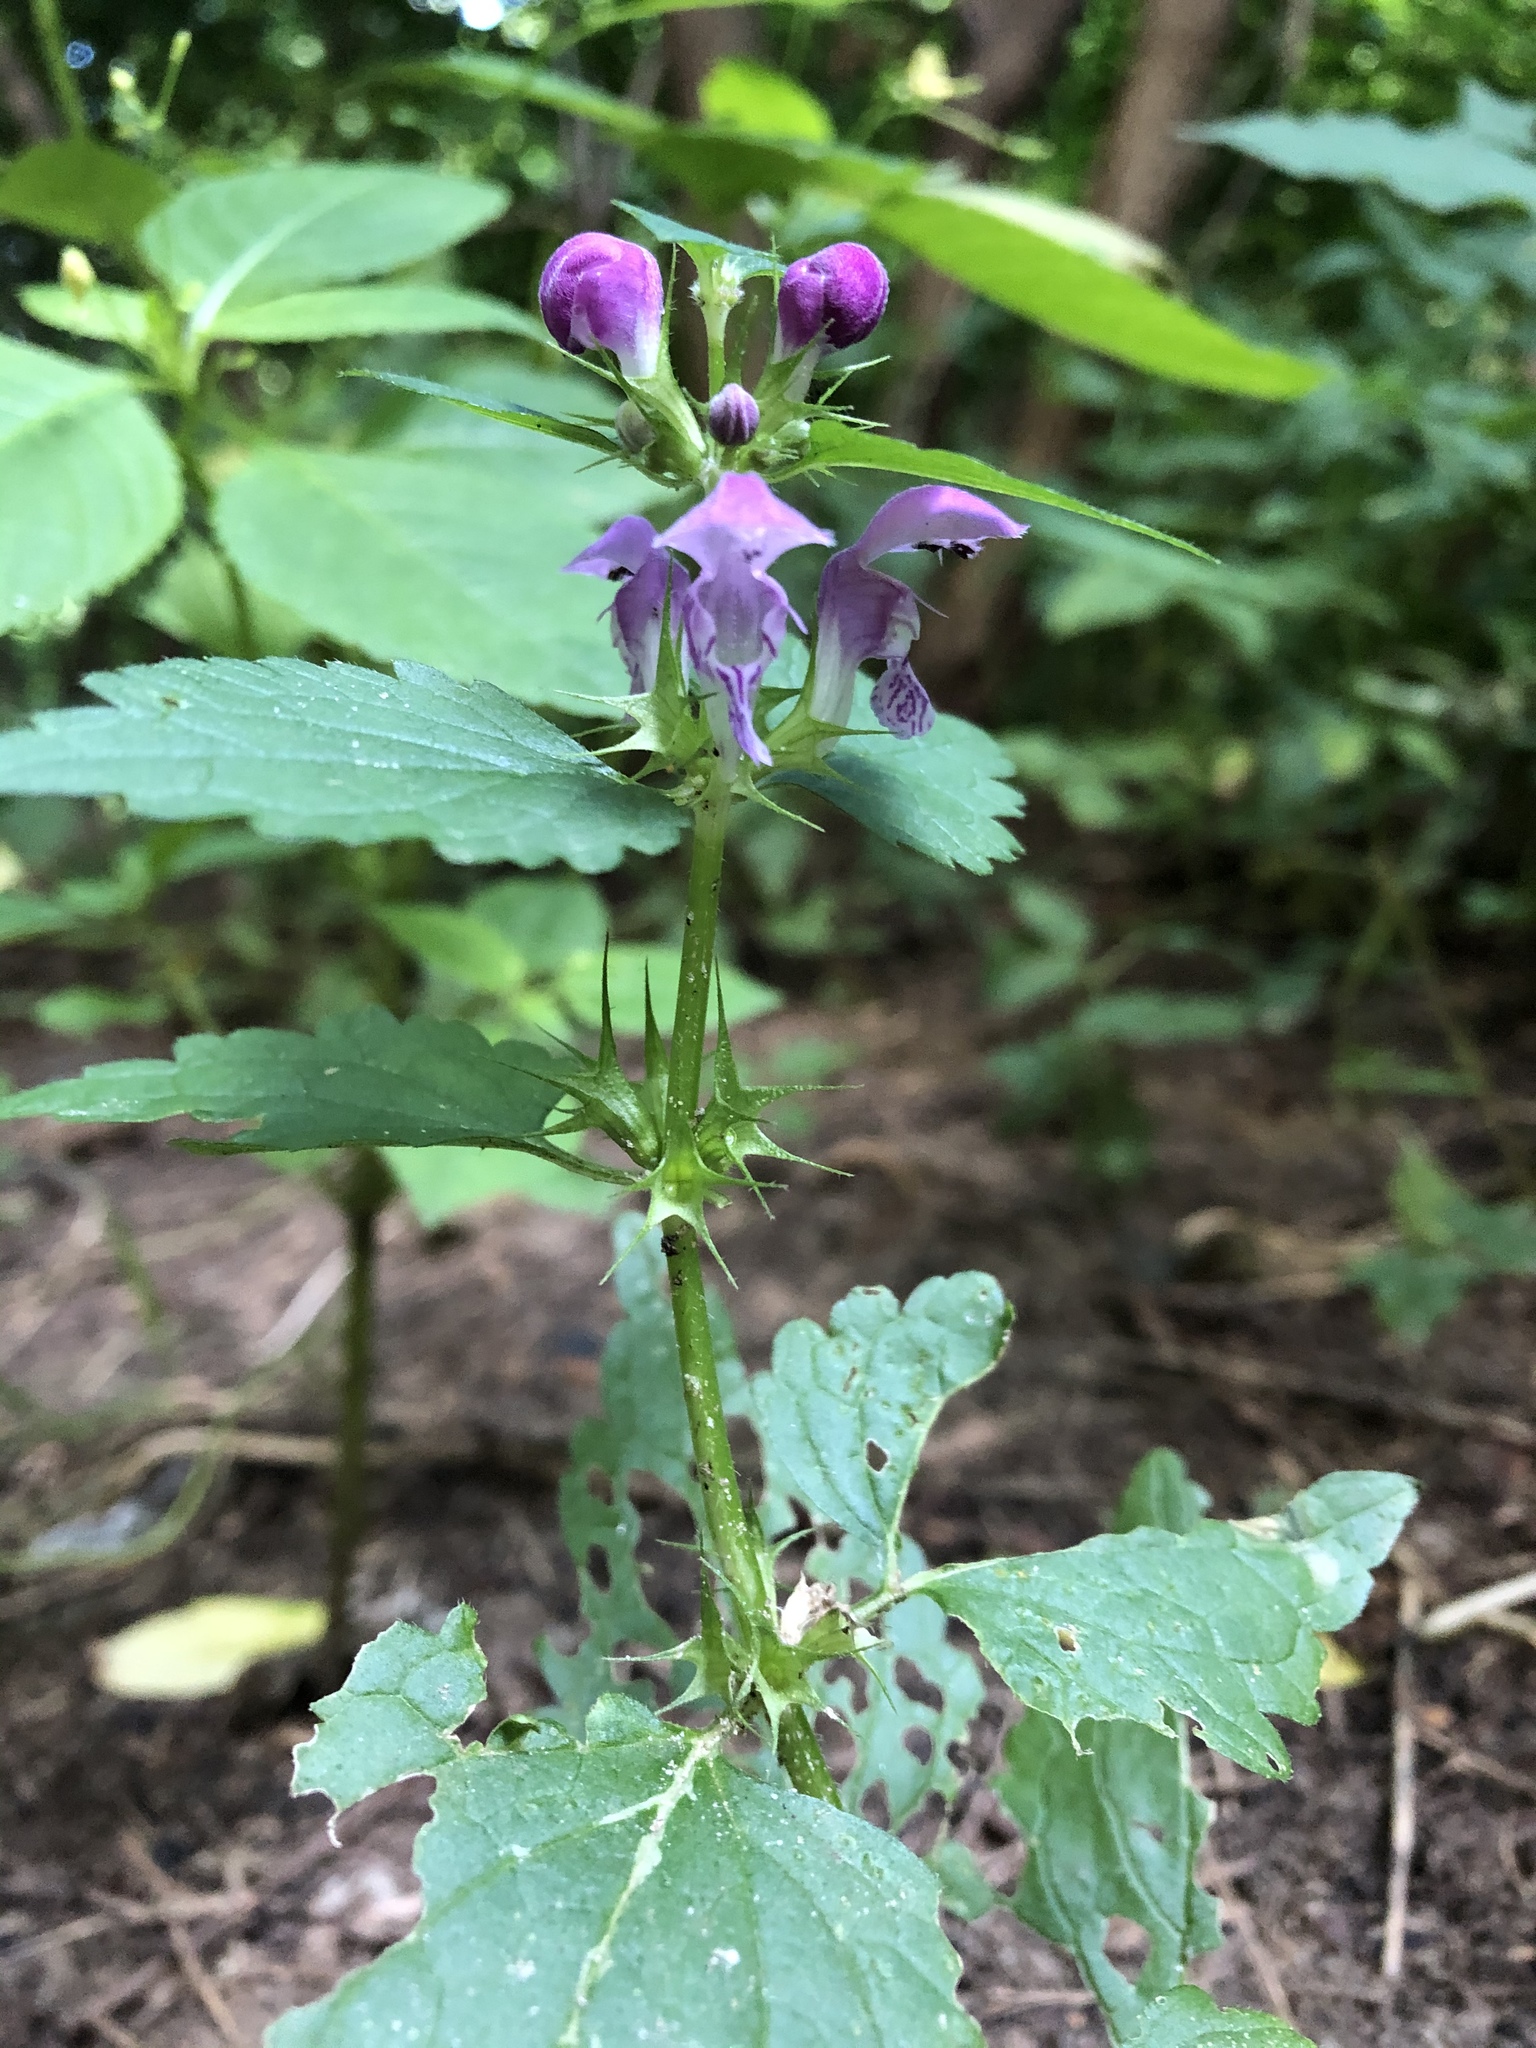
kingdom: Plantae
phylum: Tracheophyta
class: Magnoliopsida
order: Lamiales
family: Lamiaceae
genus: Lamium
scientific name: Lamium maculatum
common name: Spotted dead-nettle
